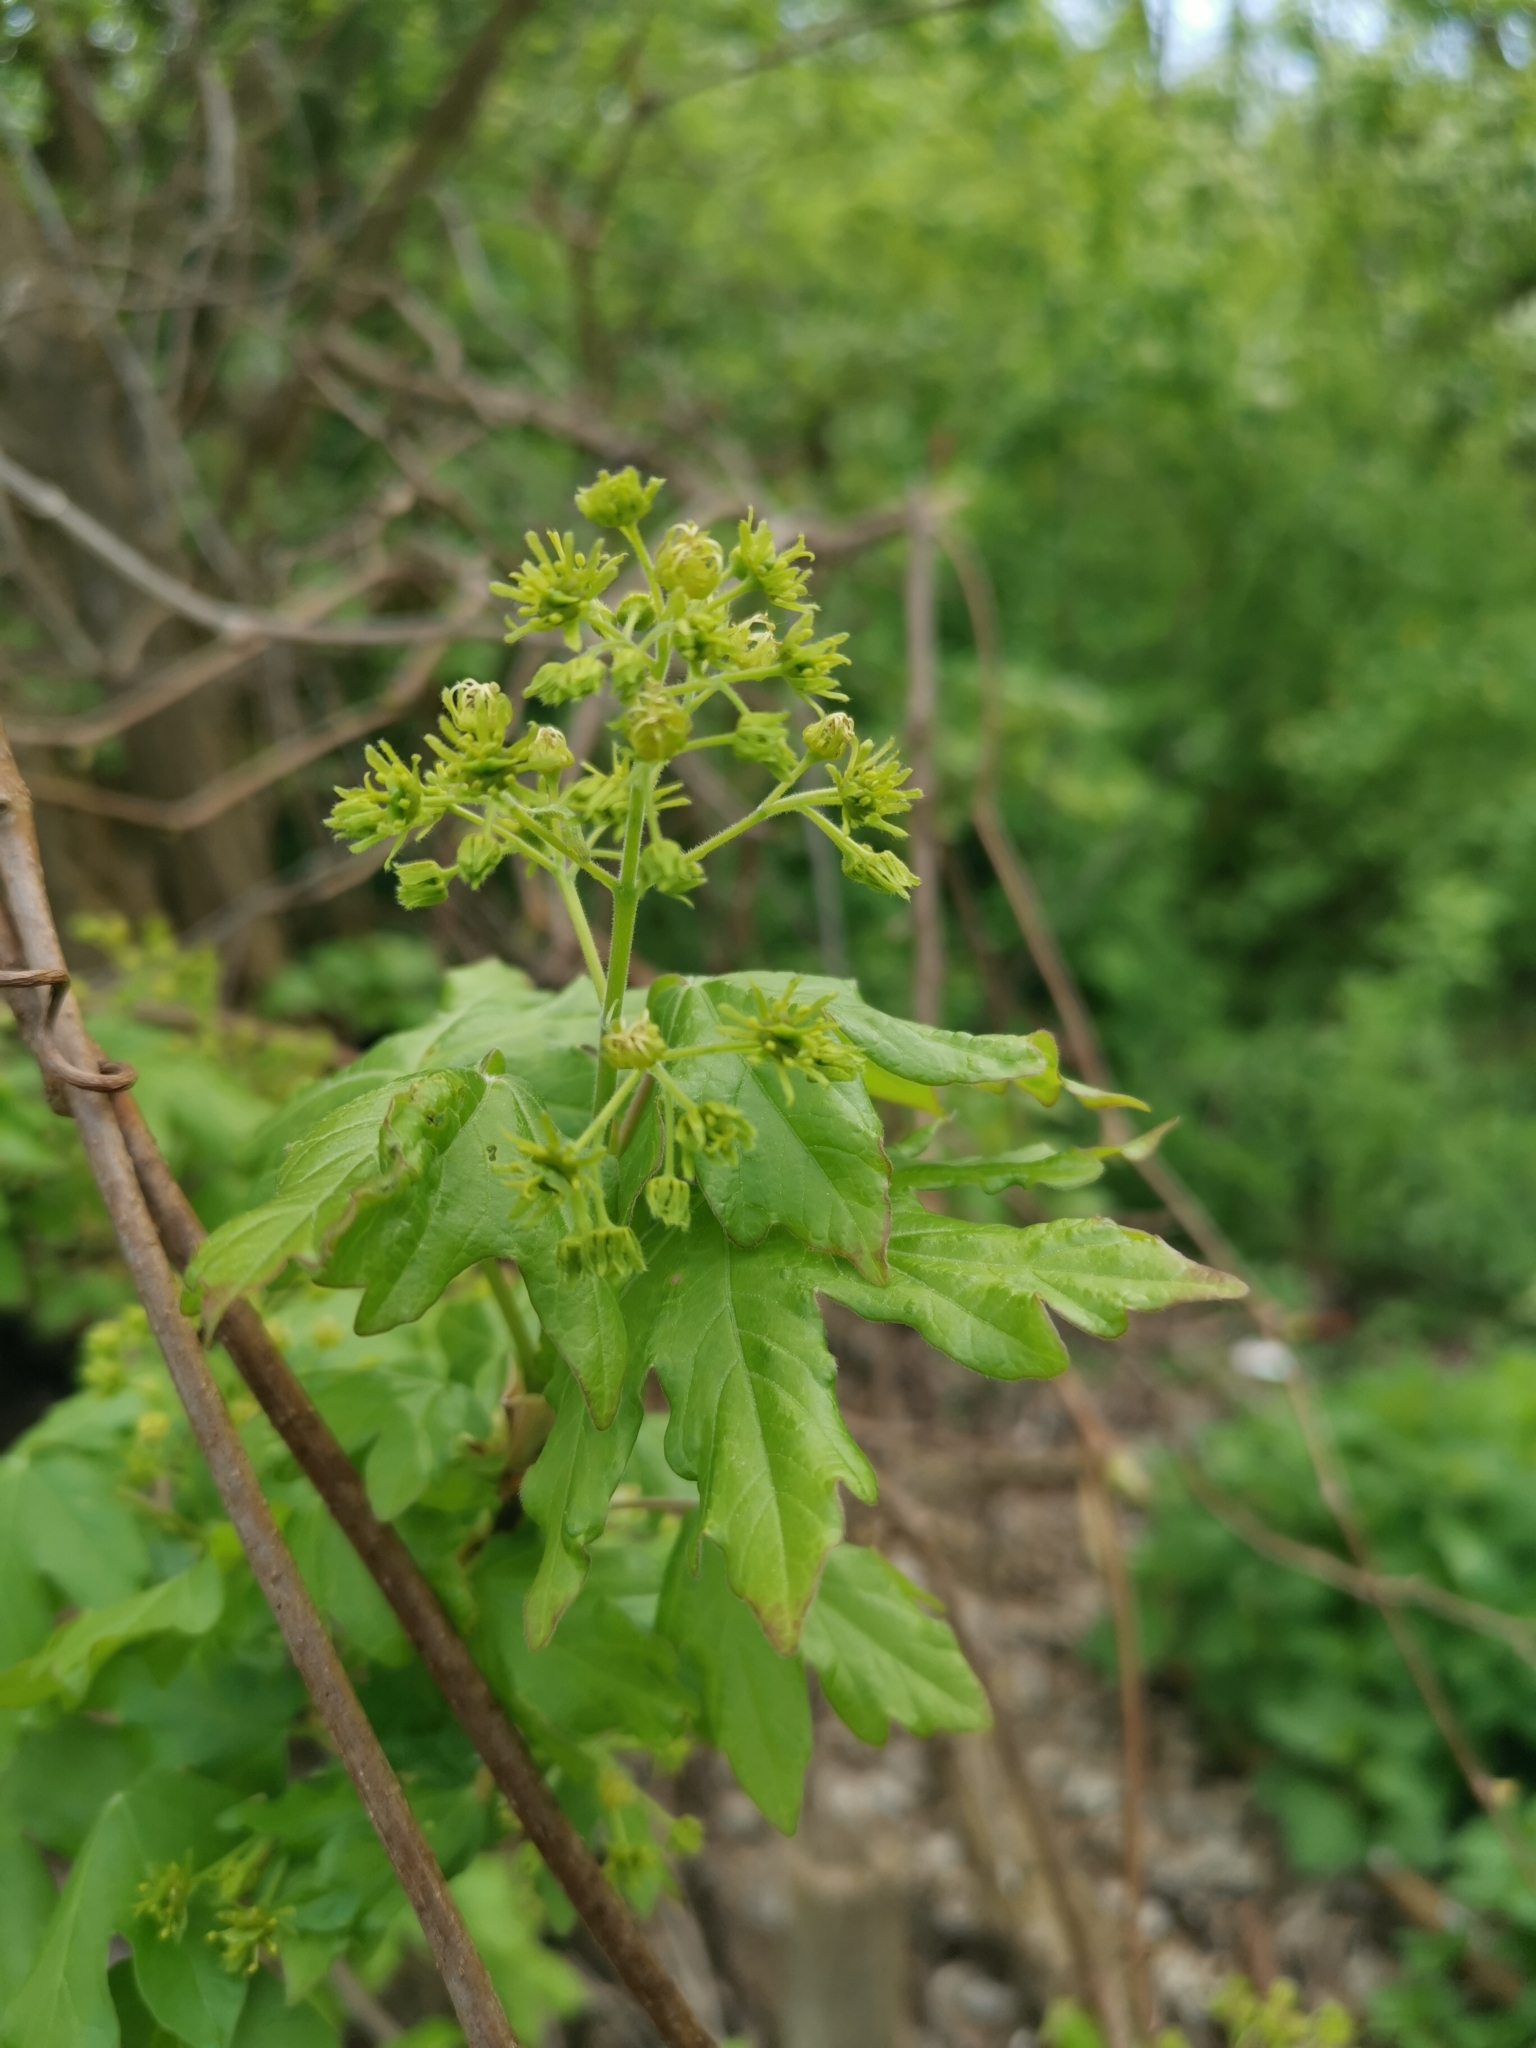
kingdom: Plantae
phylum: Tracheophyta
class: Magnoliopsida
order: Sapindales
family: Sapindaceae
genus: Acer
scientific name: Acer campestre
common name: Field maple
